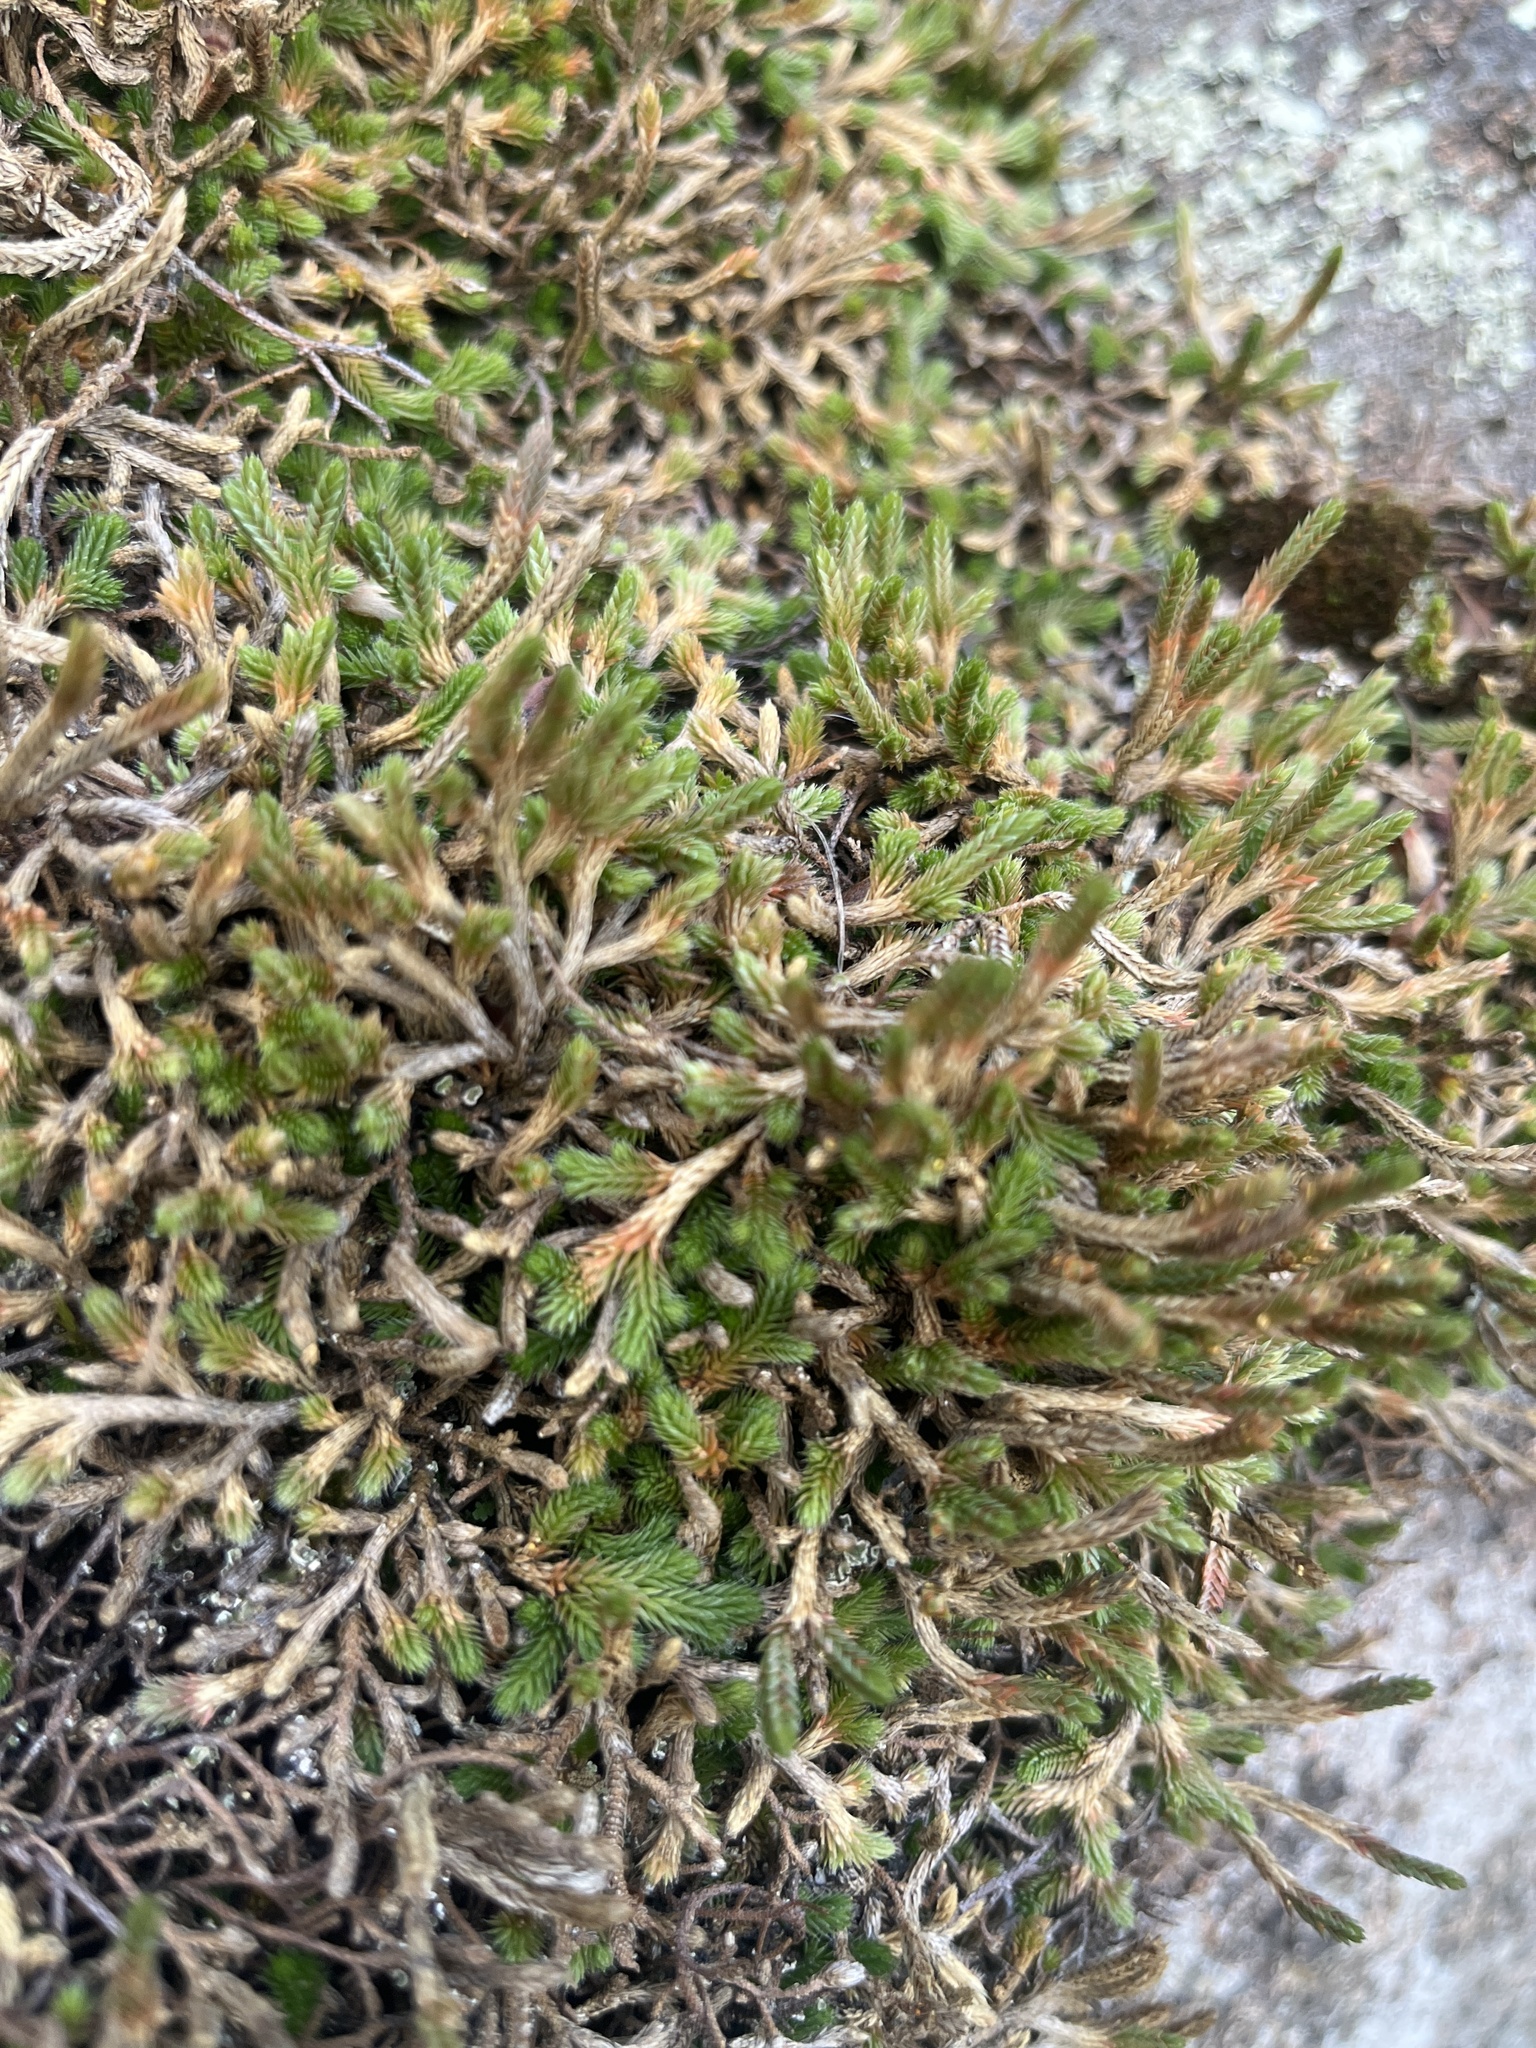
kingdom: Plantae
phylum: Tracheophyta
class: Lycopodiopsida
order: Selaginellales
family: Selaginellaceae
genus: Selaginella
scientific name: Selaginella wallacei
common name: Wallace's selaginella
